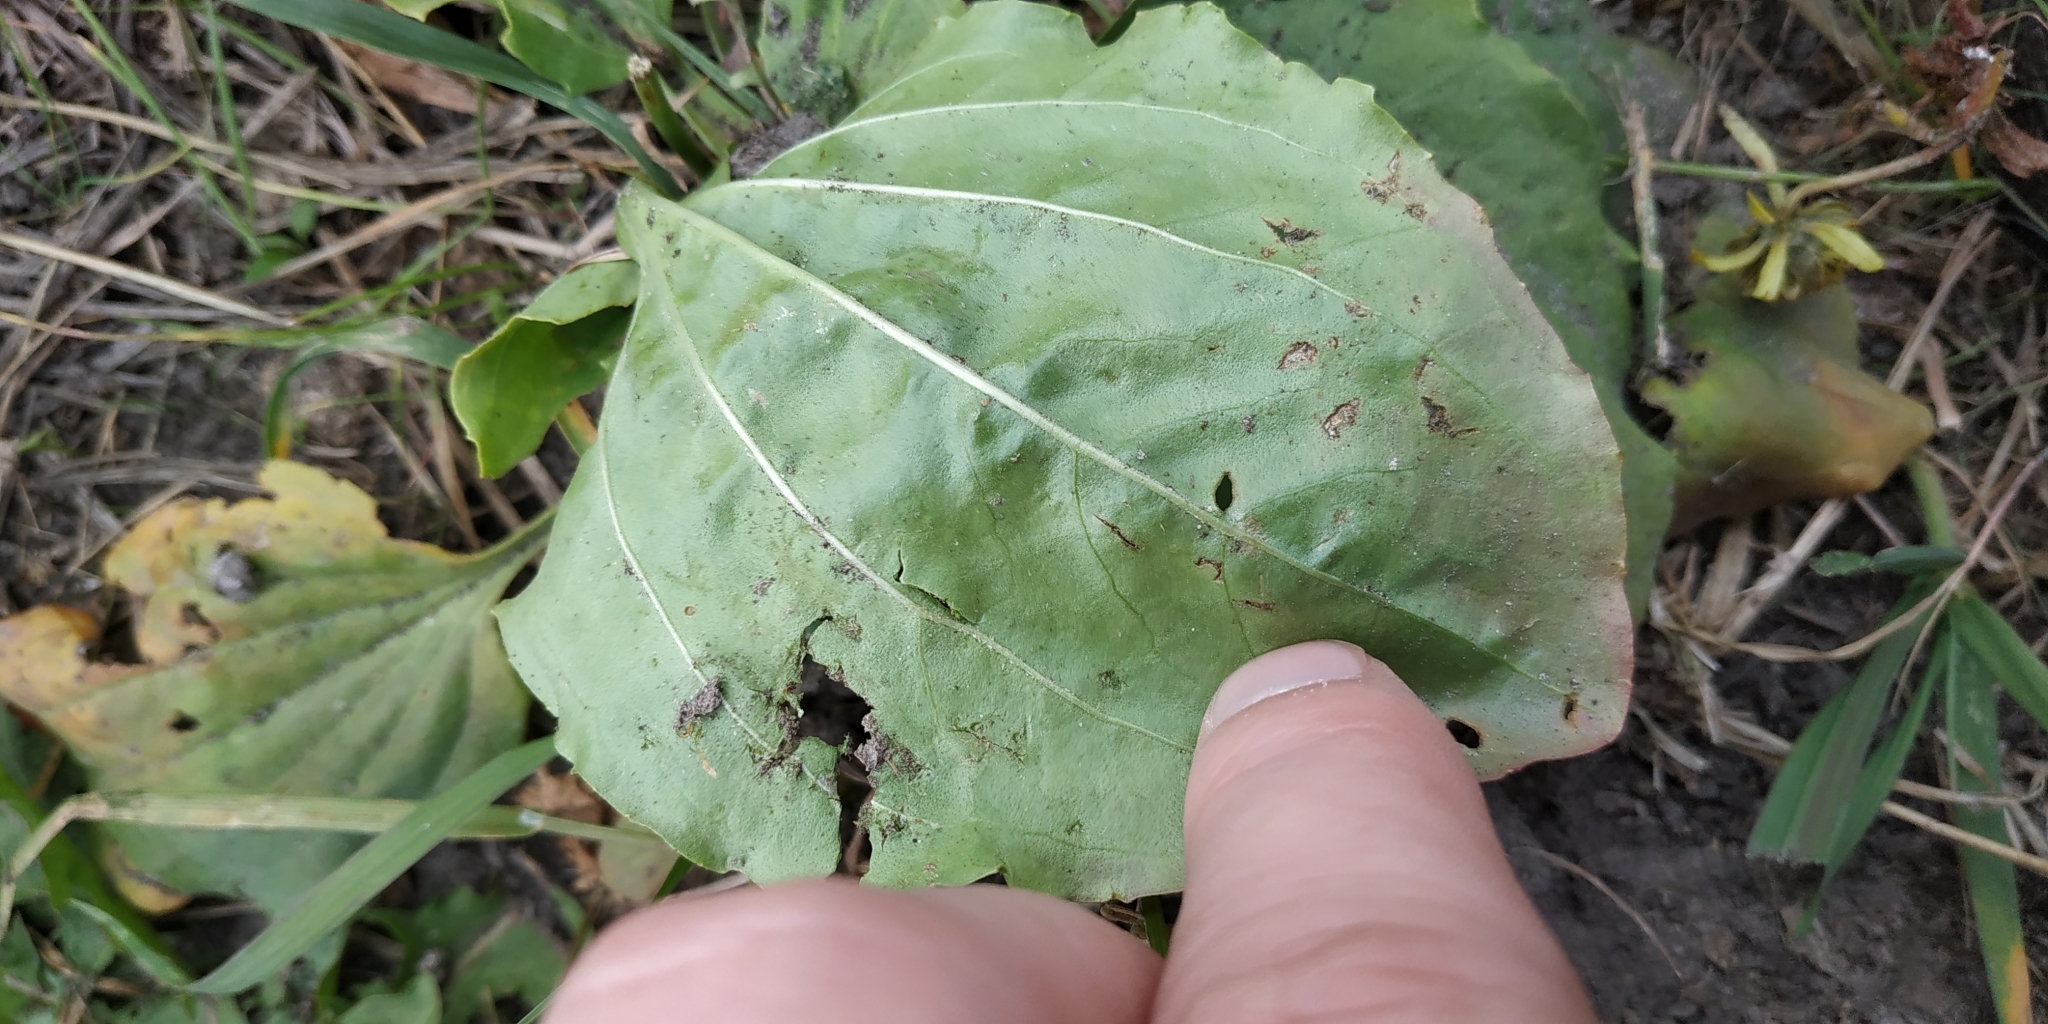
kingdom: Plantae
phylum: Tracheophyta
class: Magnoliopsida
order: Lamiales
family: Plantaginaceae
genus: Plantago
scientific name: Plantago major
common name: Common plantain
